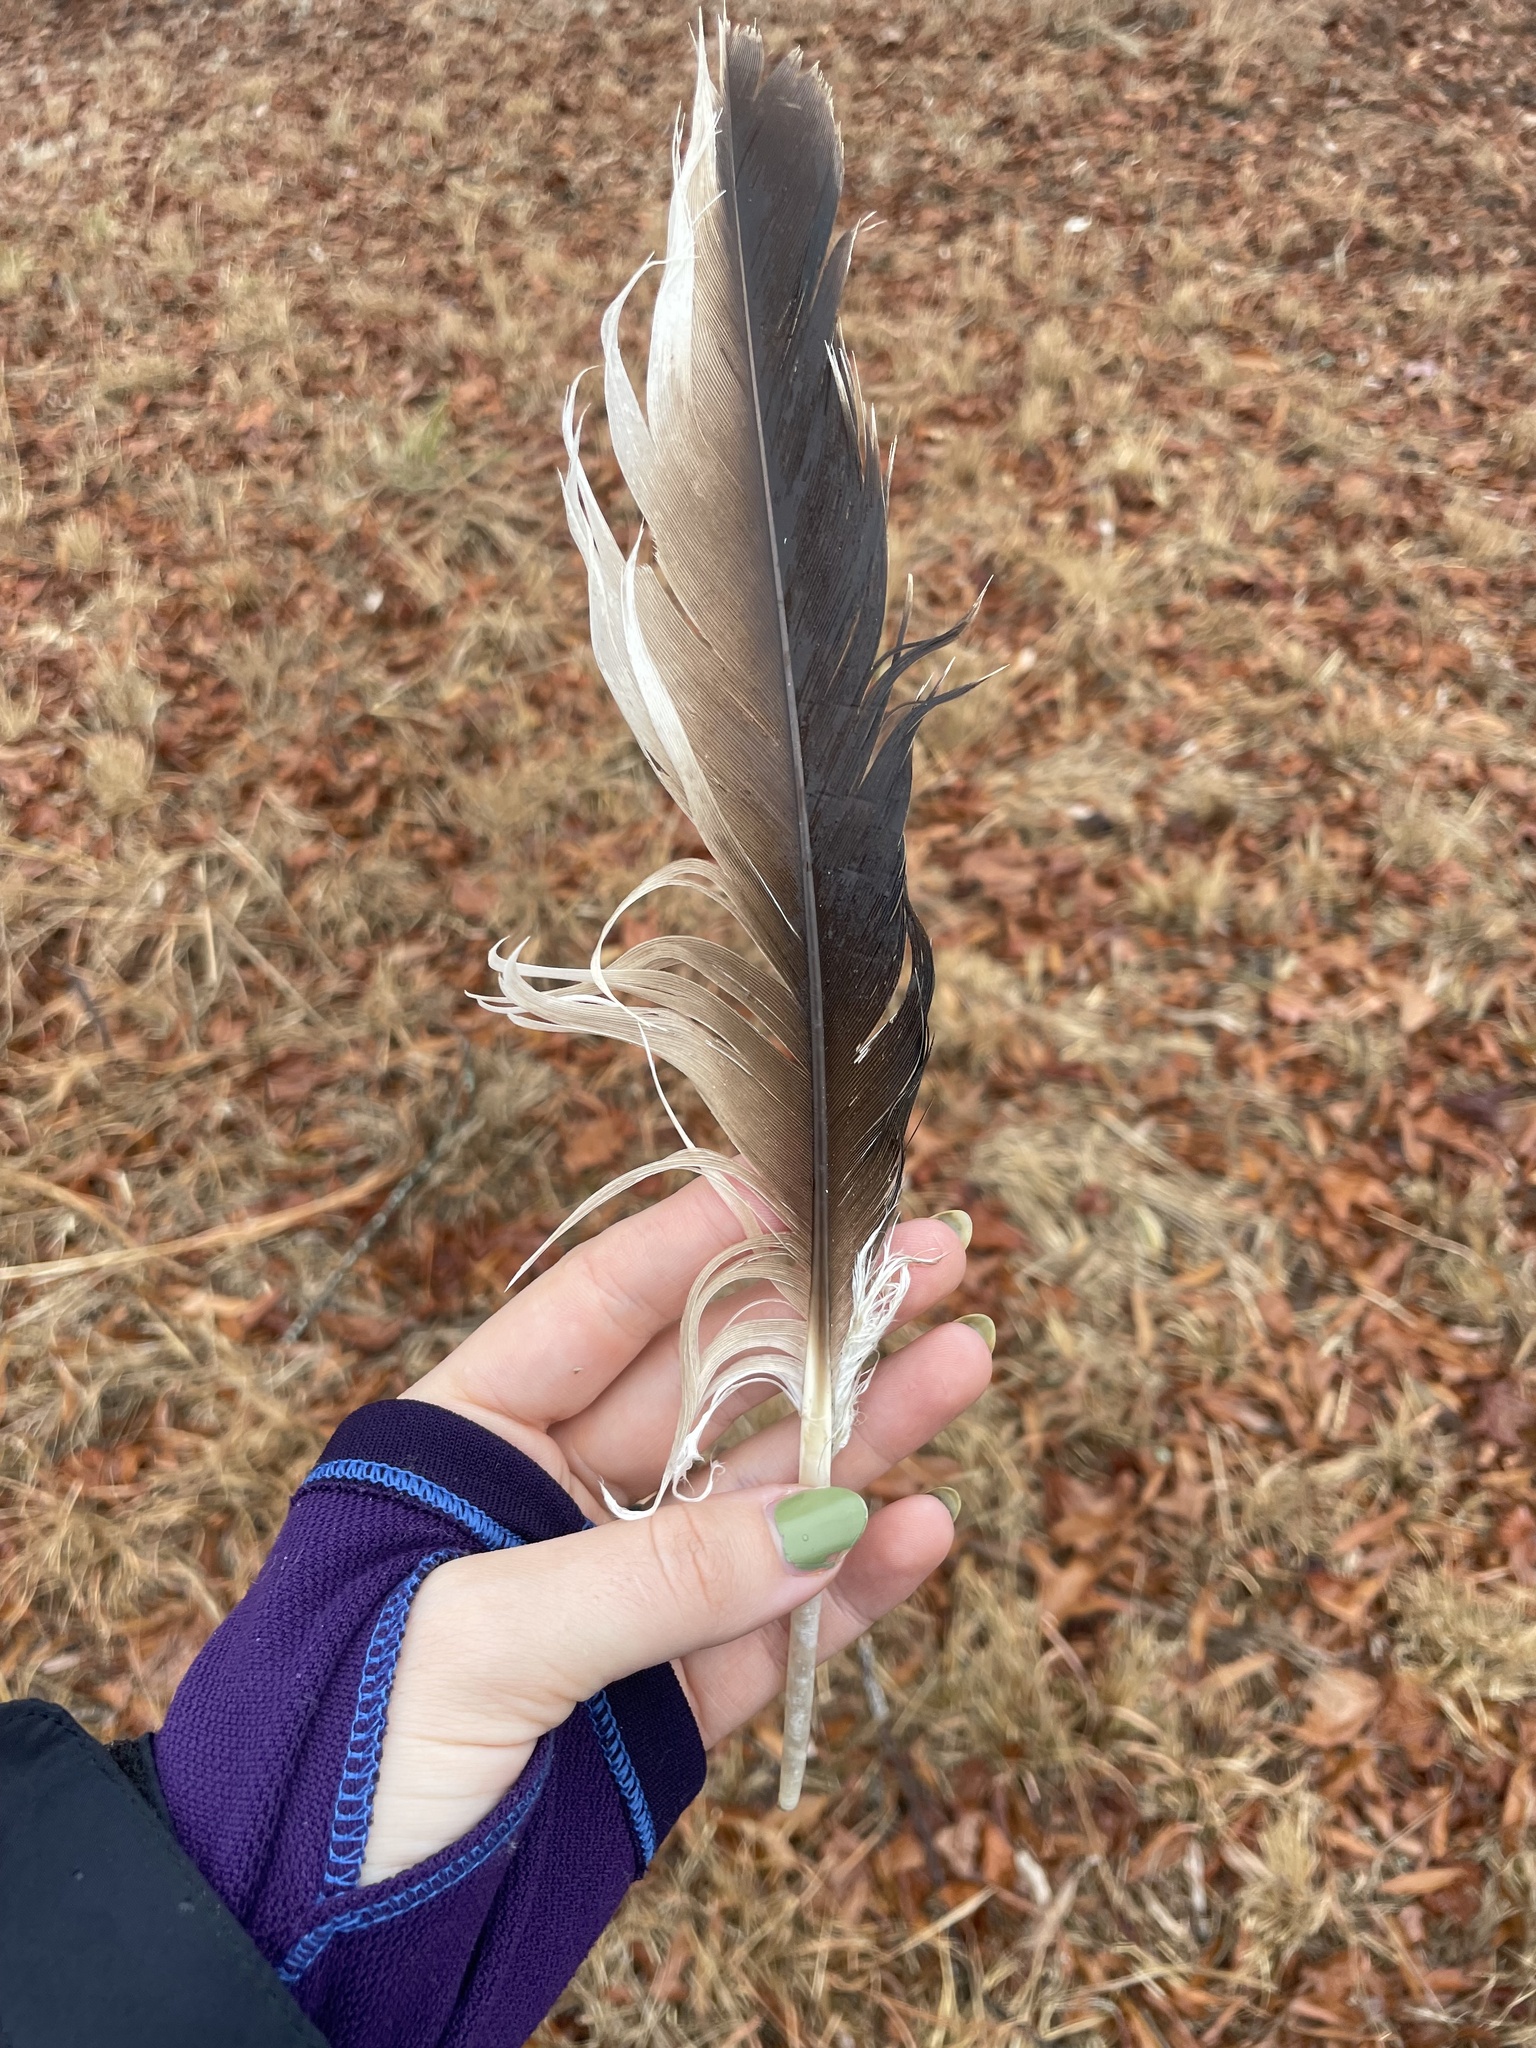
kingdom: Animalia
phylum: Chordata
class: Aves
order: Accipitriformes
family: Cathartidae
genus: Cathartes
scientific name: Cathartes aura
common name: Turkey vulture
